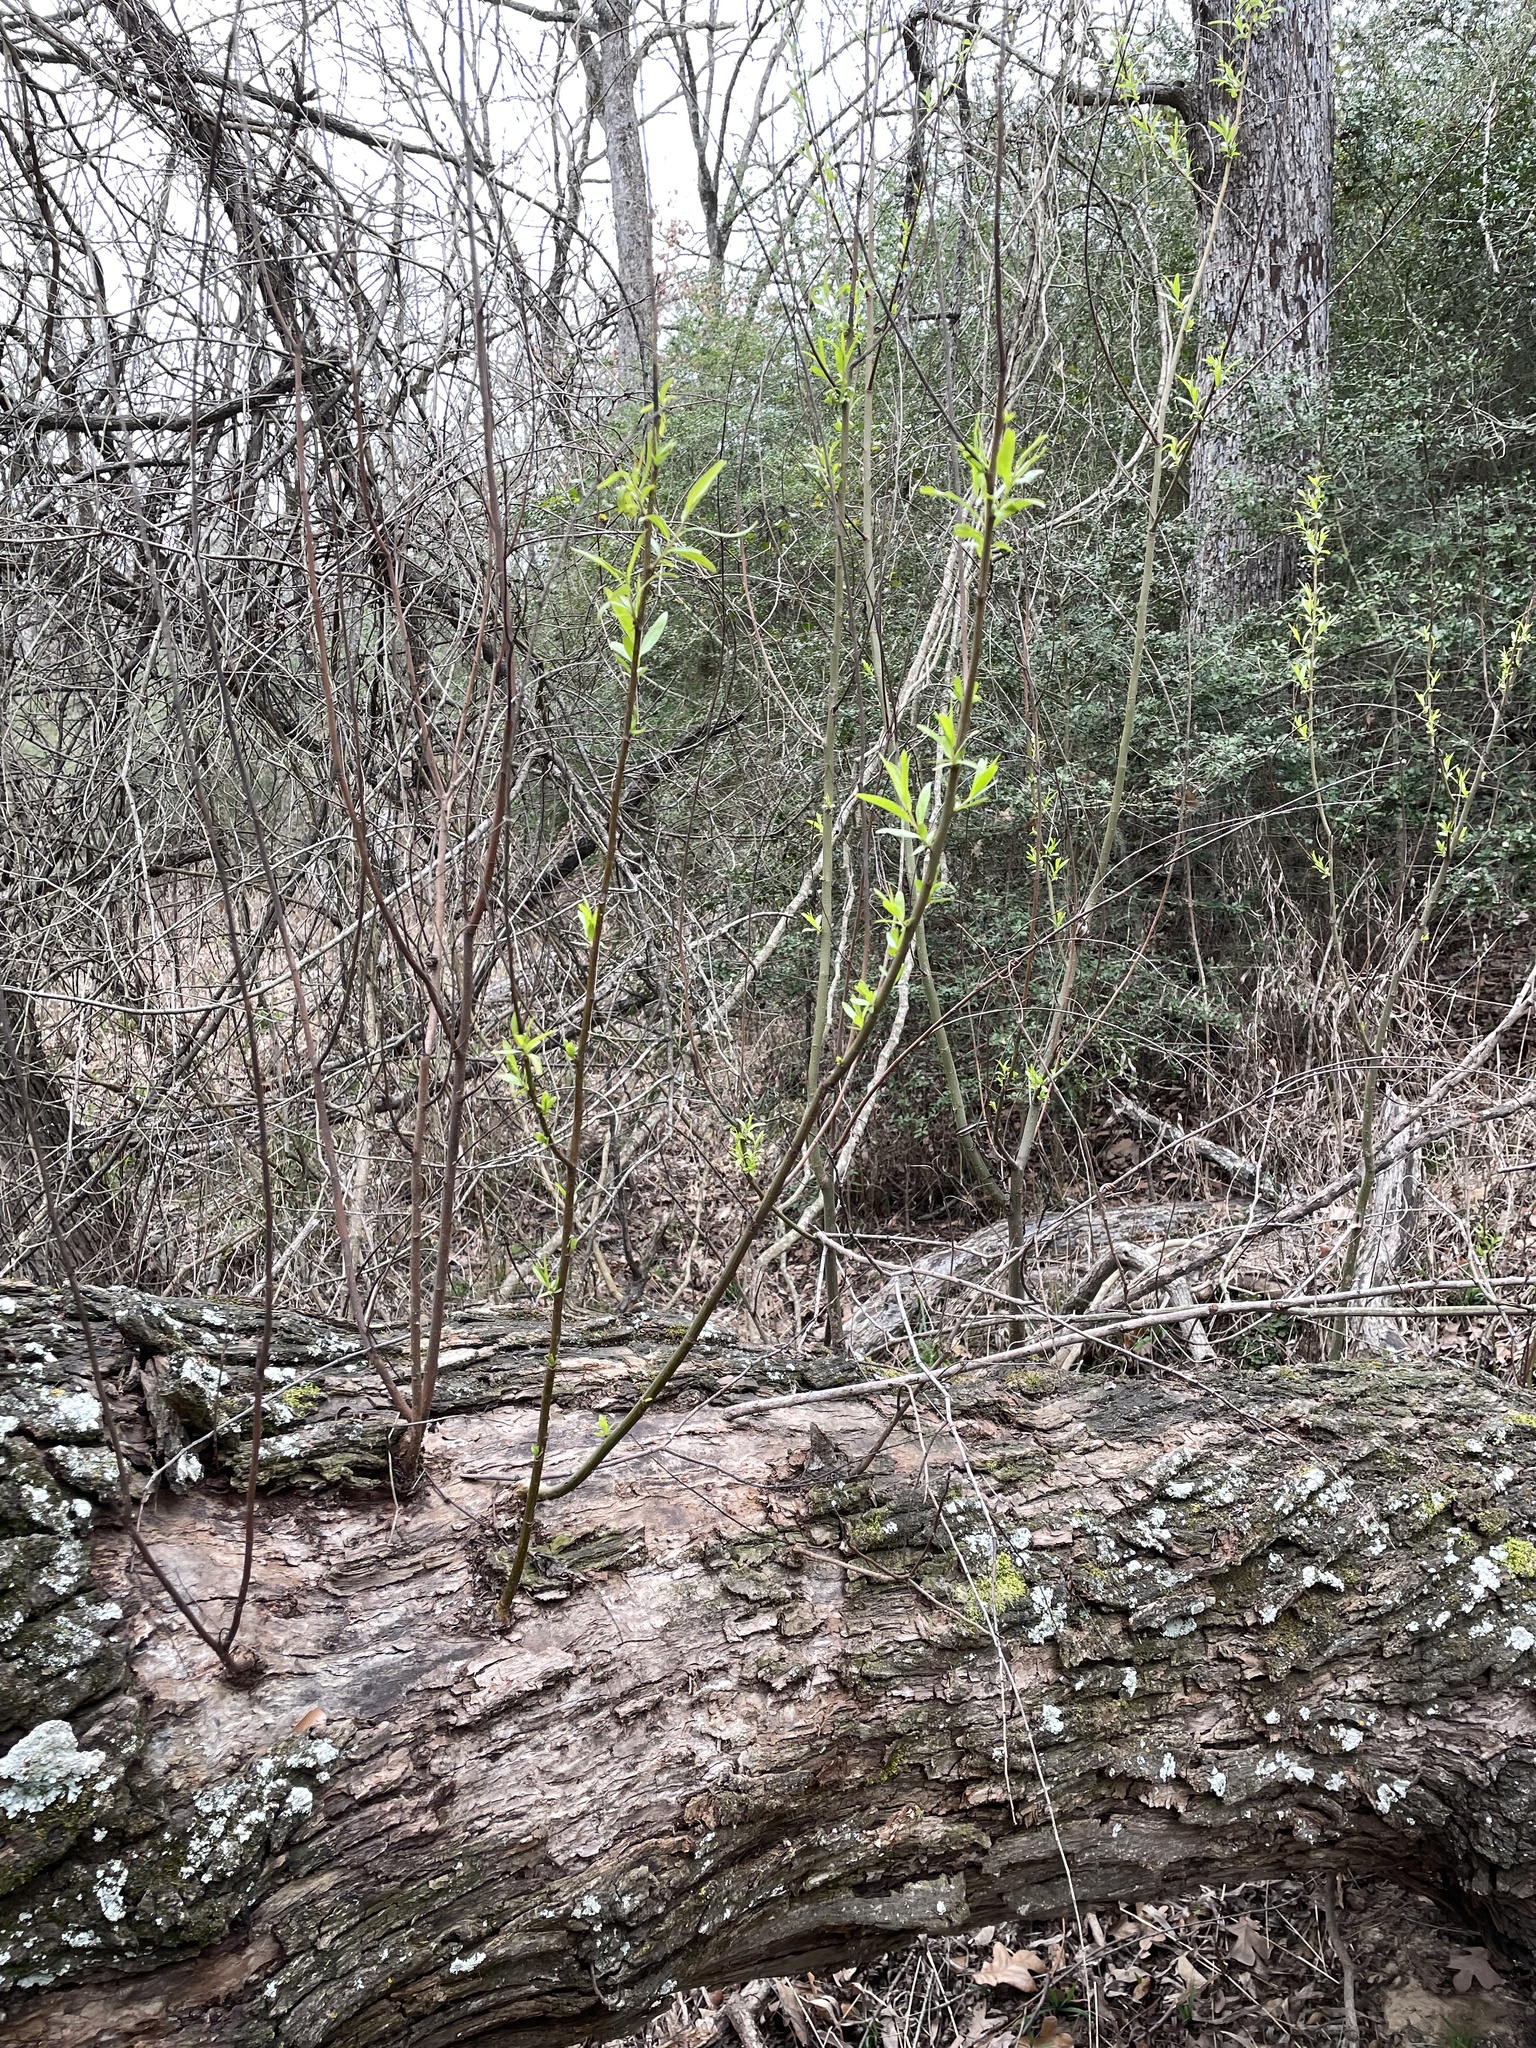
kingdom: Plantae
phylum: Tracheophyta
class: Magnoliopsida
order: Malpighiales
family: Salicaceae
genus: Salix
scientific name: Salix nigra
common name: Black willow
